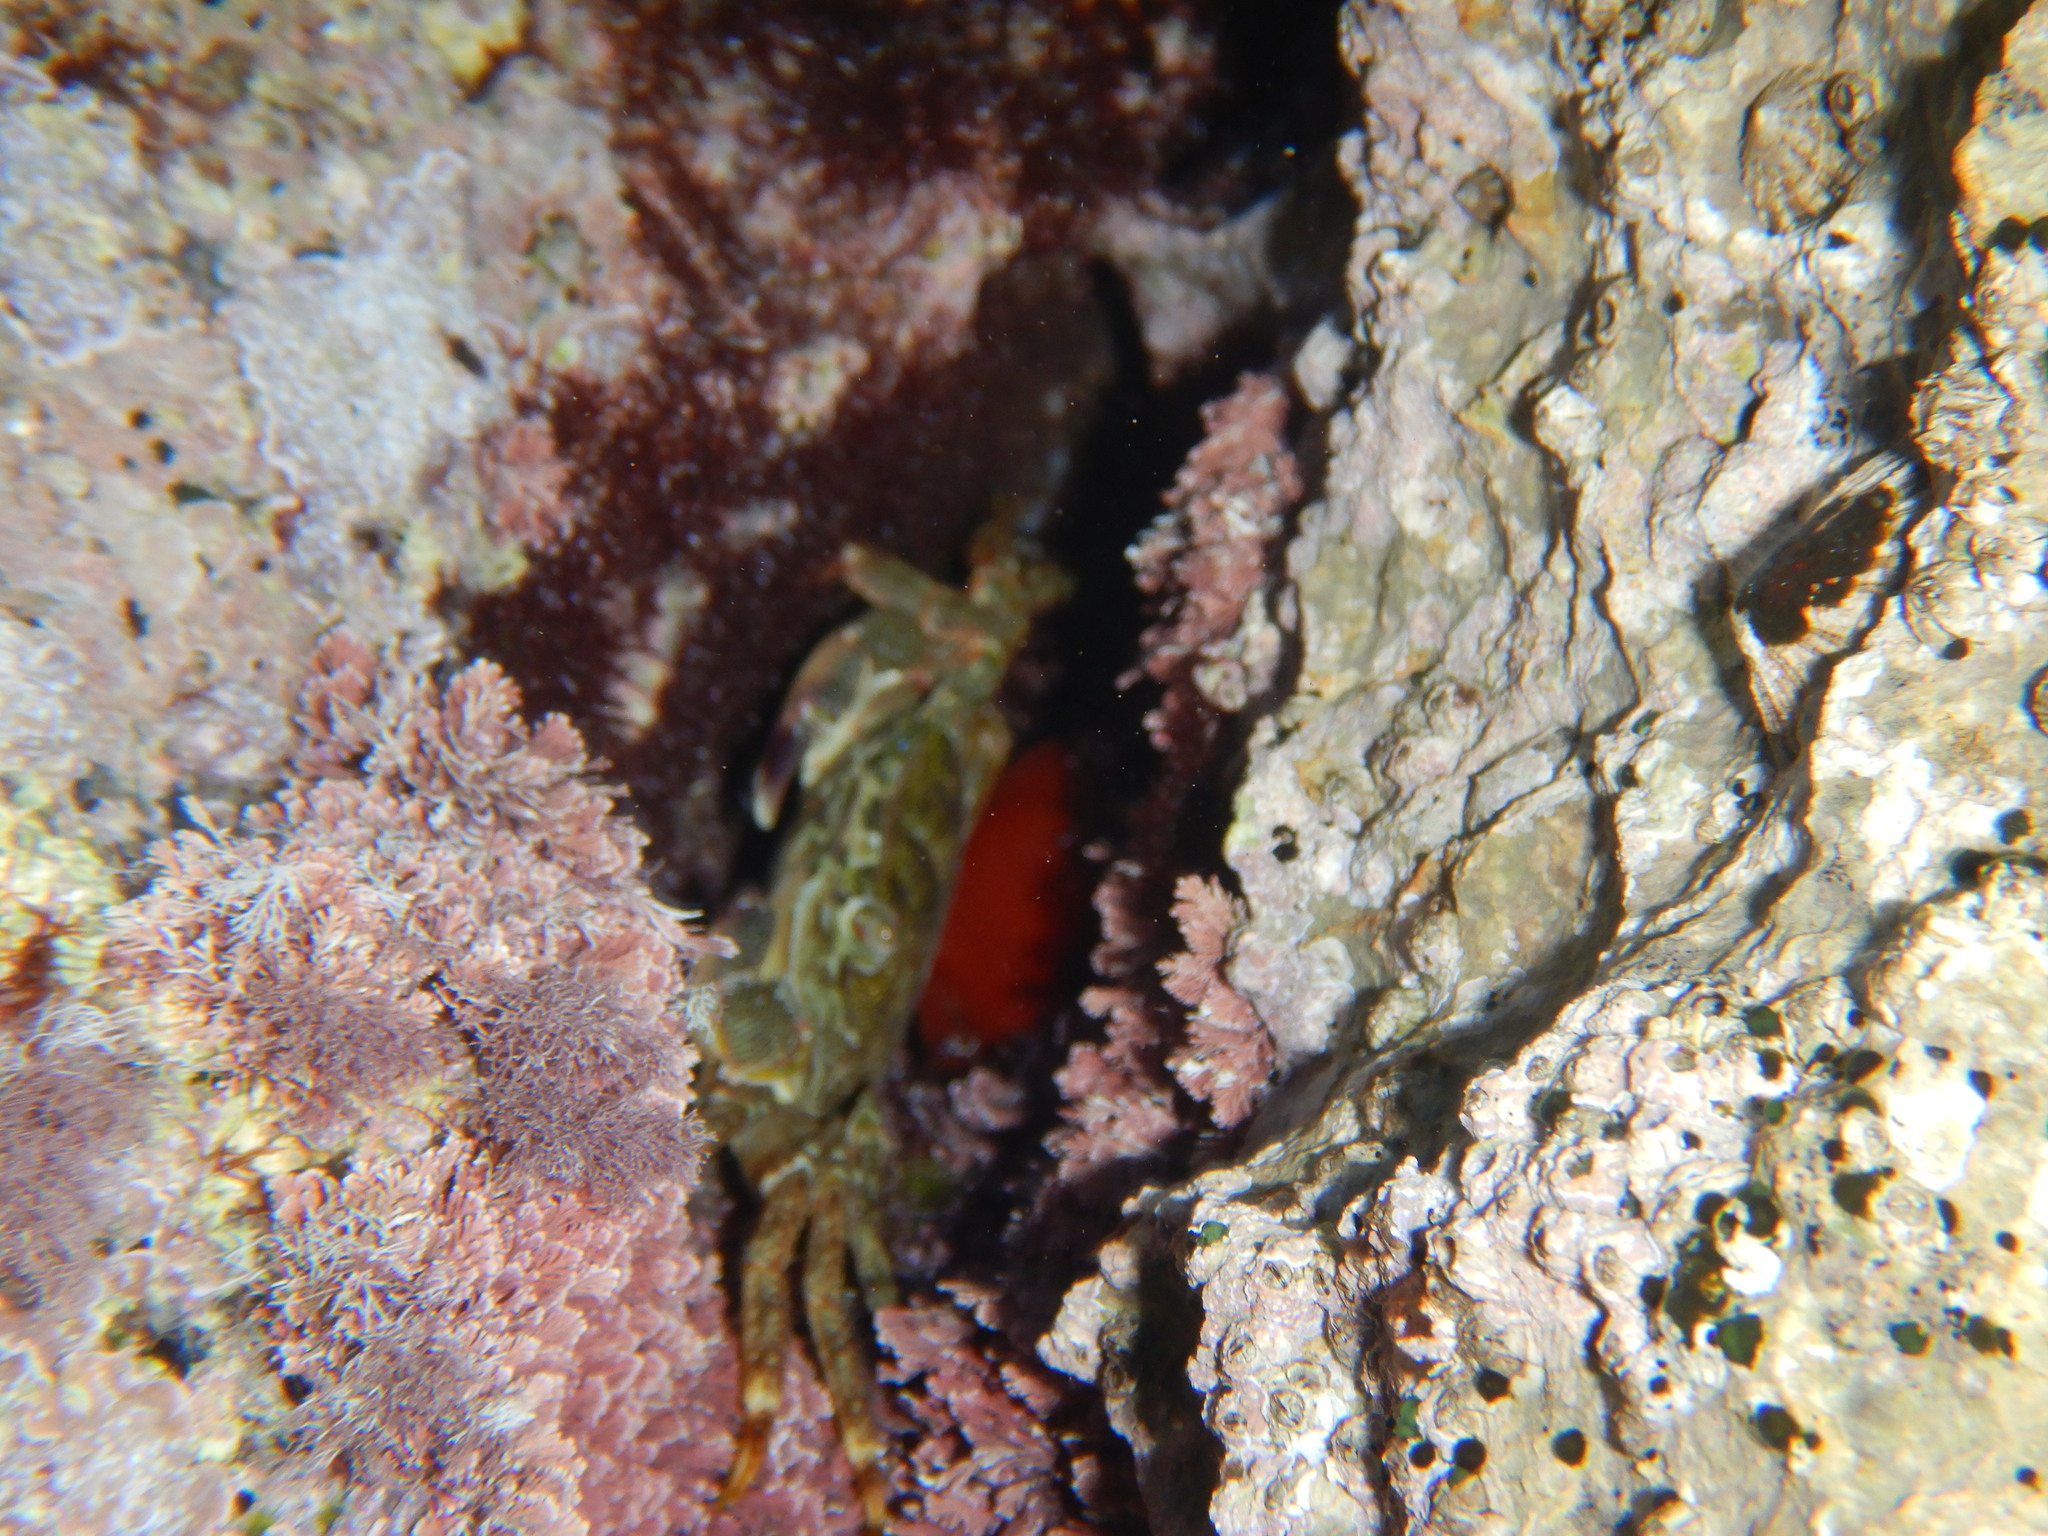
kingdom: Animalia
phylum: Arthropoda
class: Malacostraca
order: Decapoda
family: Grapsidae
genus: Pachygrapsus
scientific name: Pachygrapsus marmoratus
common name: Marbled rock crab
